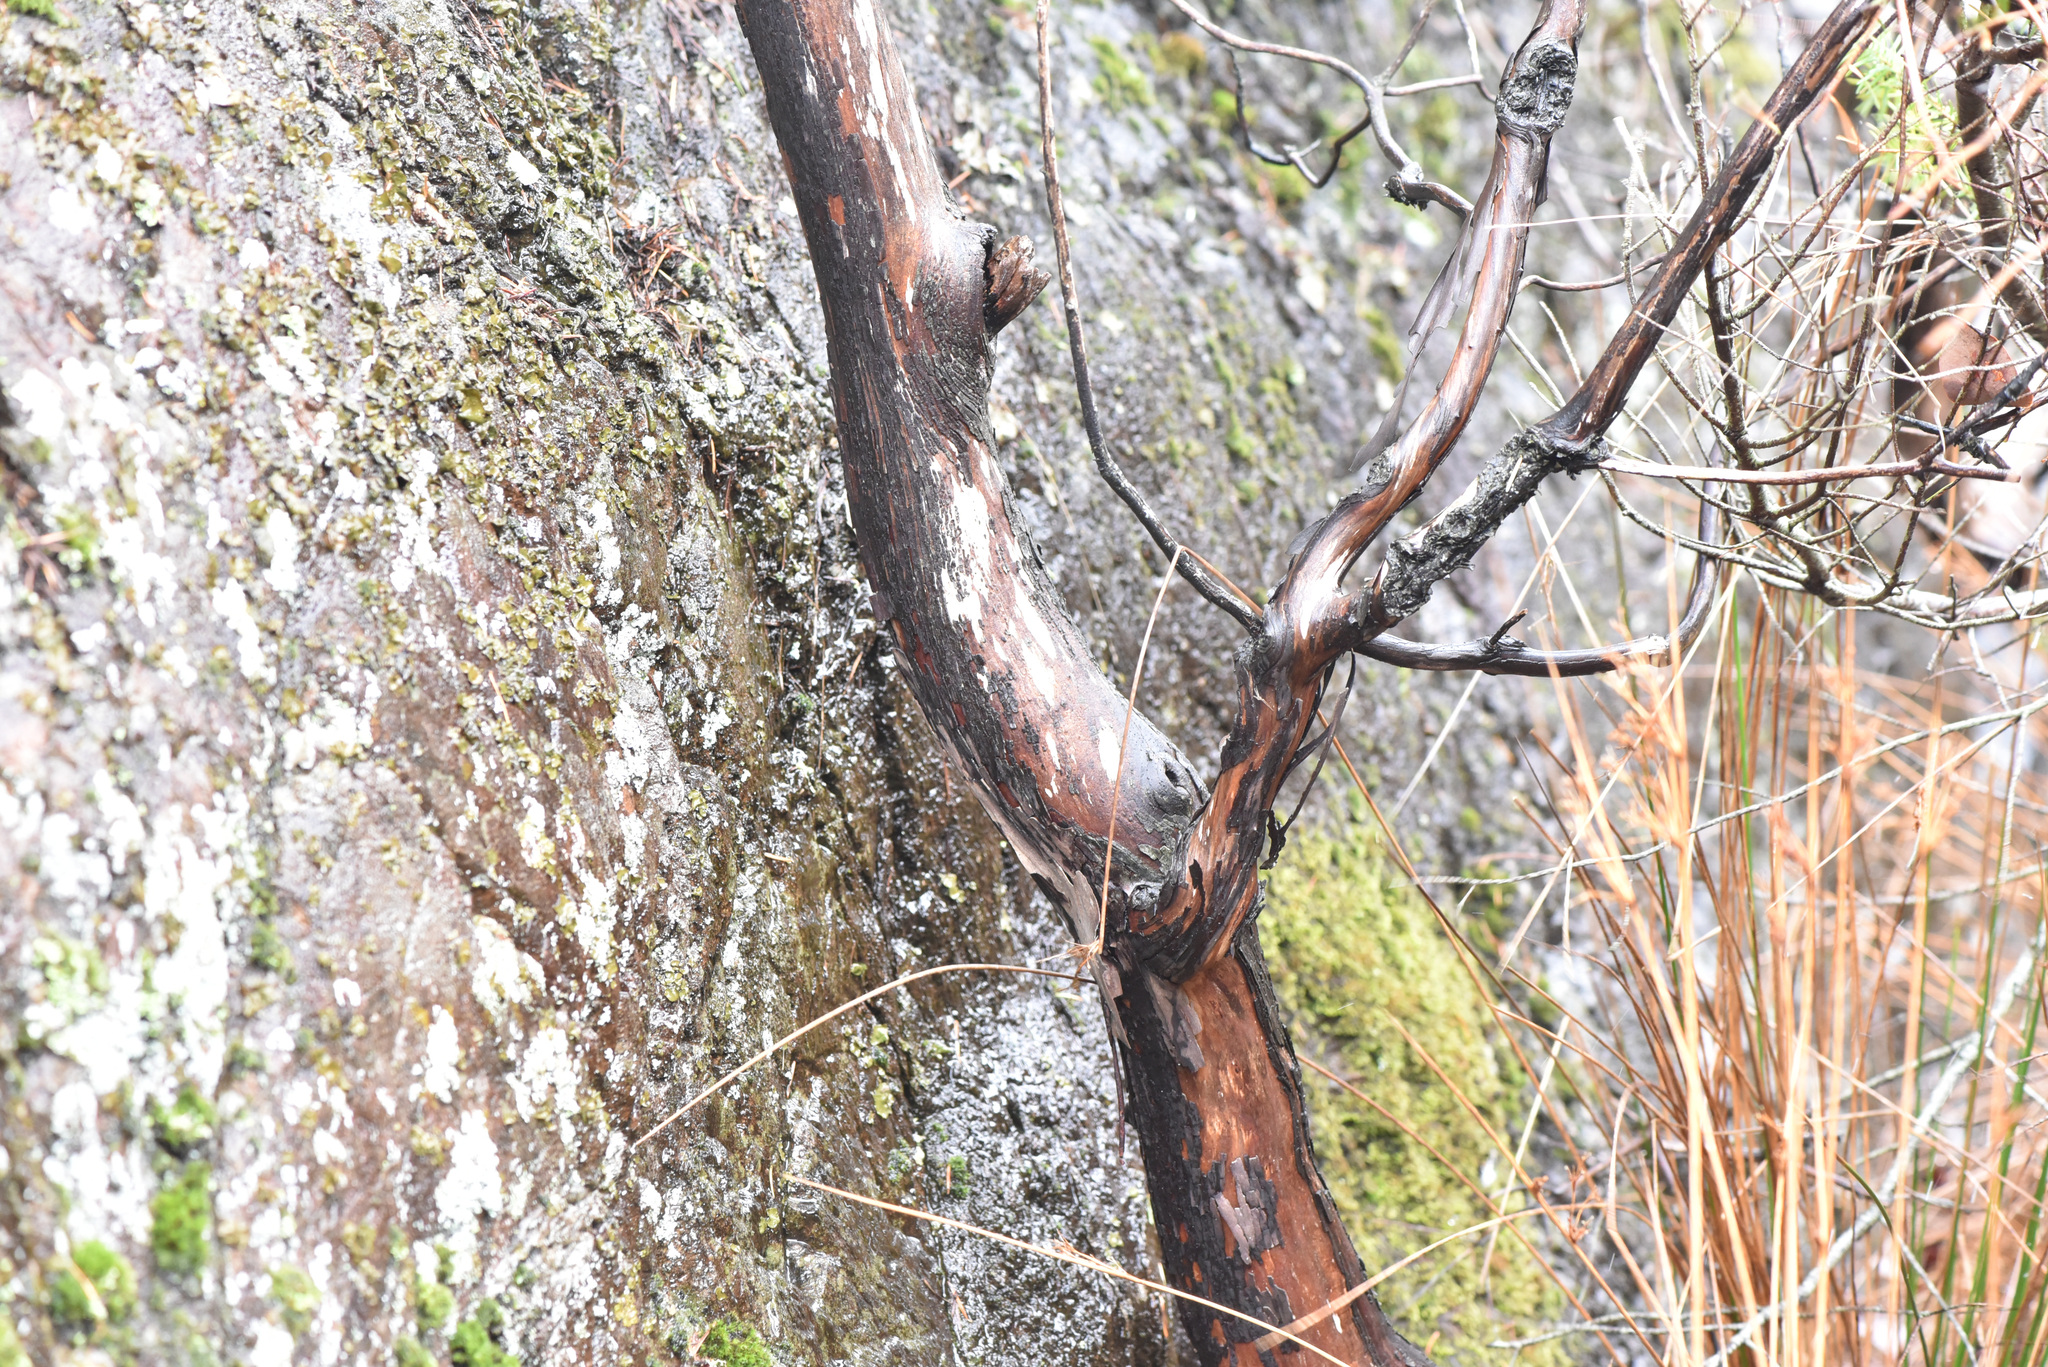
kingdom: Plantae
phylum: Tracheophyta
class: Magnoliopsida
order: Ericales
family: Ericaceae
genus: Arbutus
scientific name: Arbutus menziesii
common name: Pacific madrone
